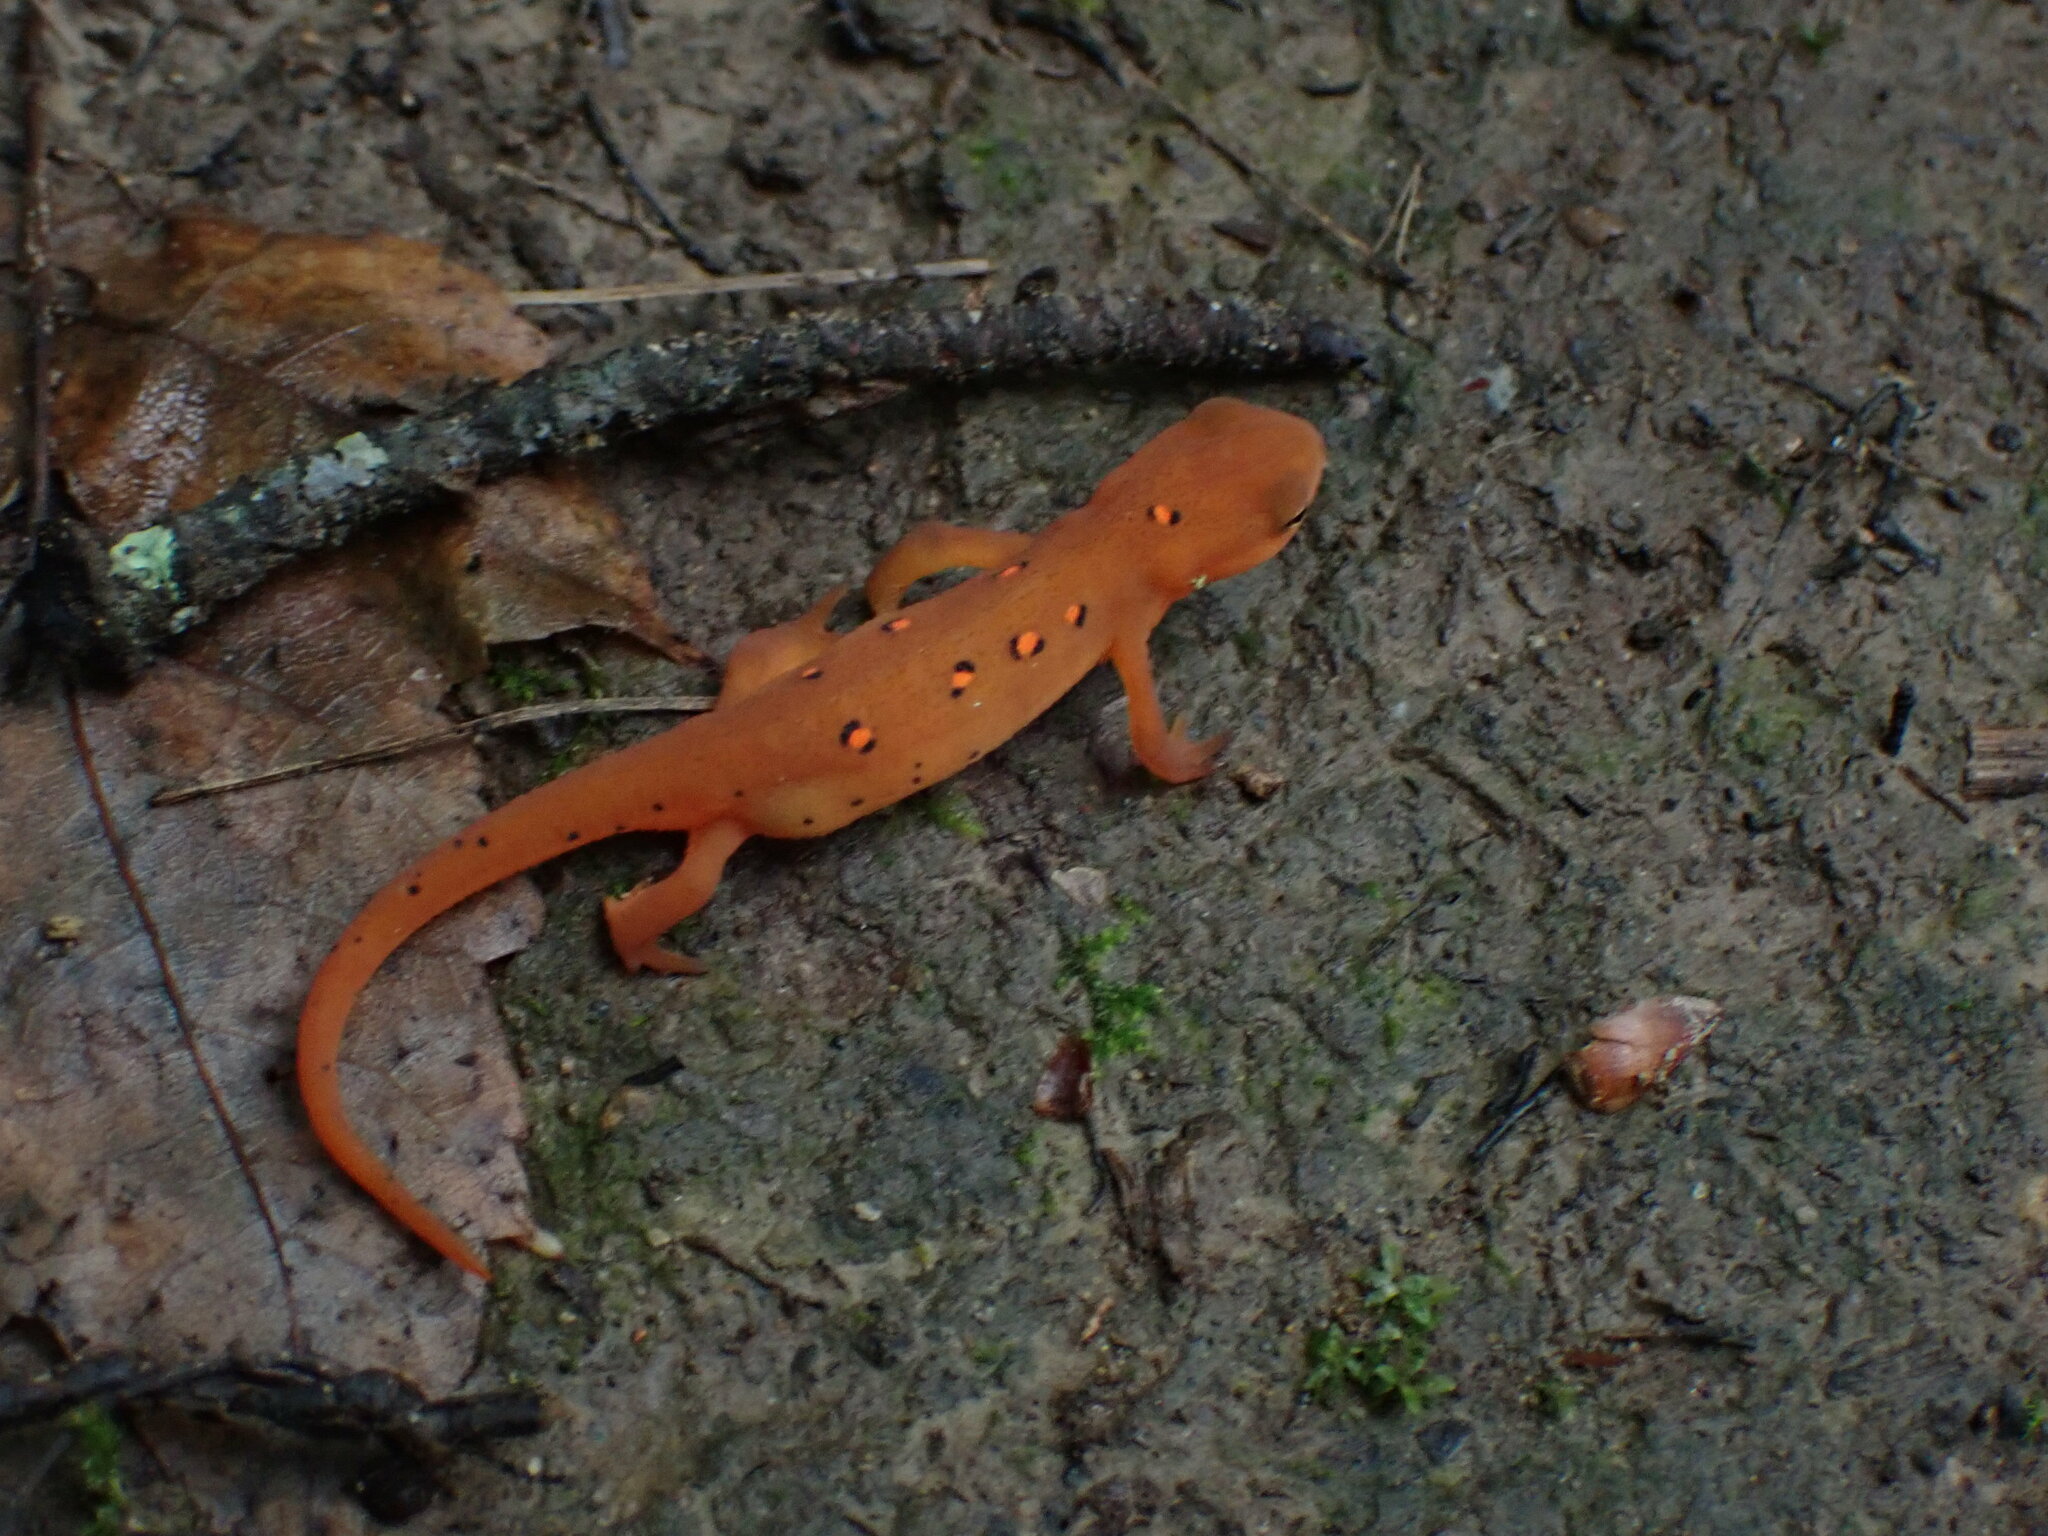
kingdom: Animalia
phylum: Chordata
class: Amphibia
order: Caudata
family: Salamandridae
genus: Notophthalmus
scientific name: Notophthalmus viridescens
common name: Eastern newt
